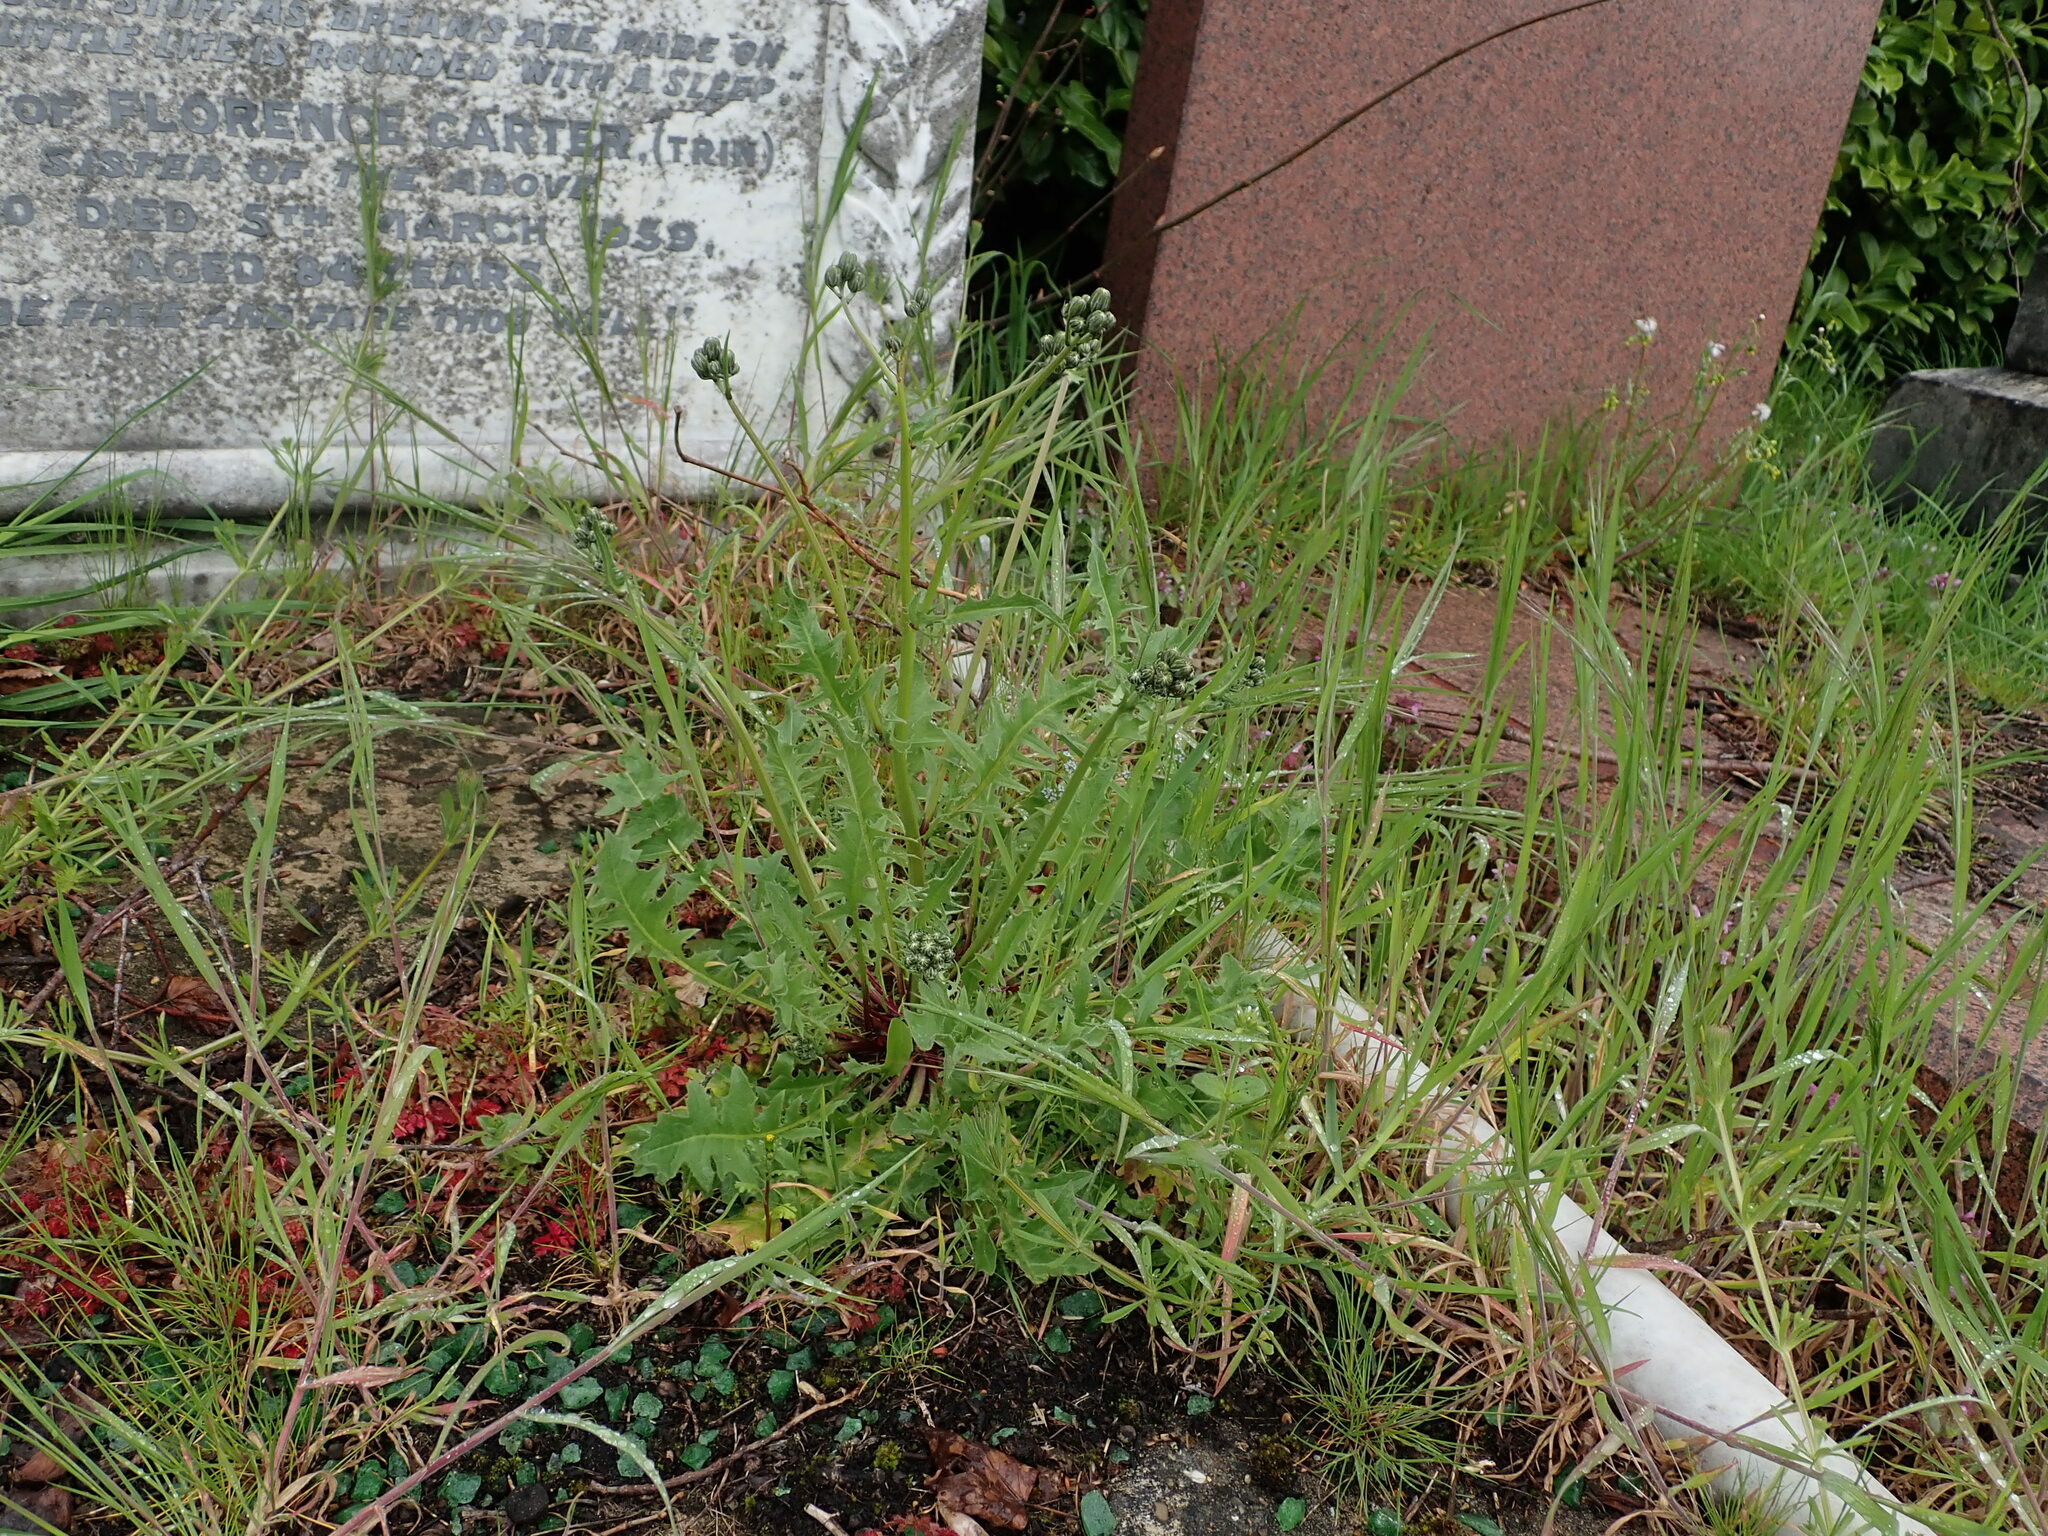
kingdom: Plantae
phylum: Tracheophyta
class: Magnoliopsida
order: Asterales
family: Asteraceae
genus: Crepis
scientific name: Crepis vesicaria
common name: Beaked hawksbeard
